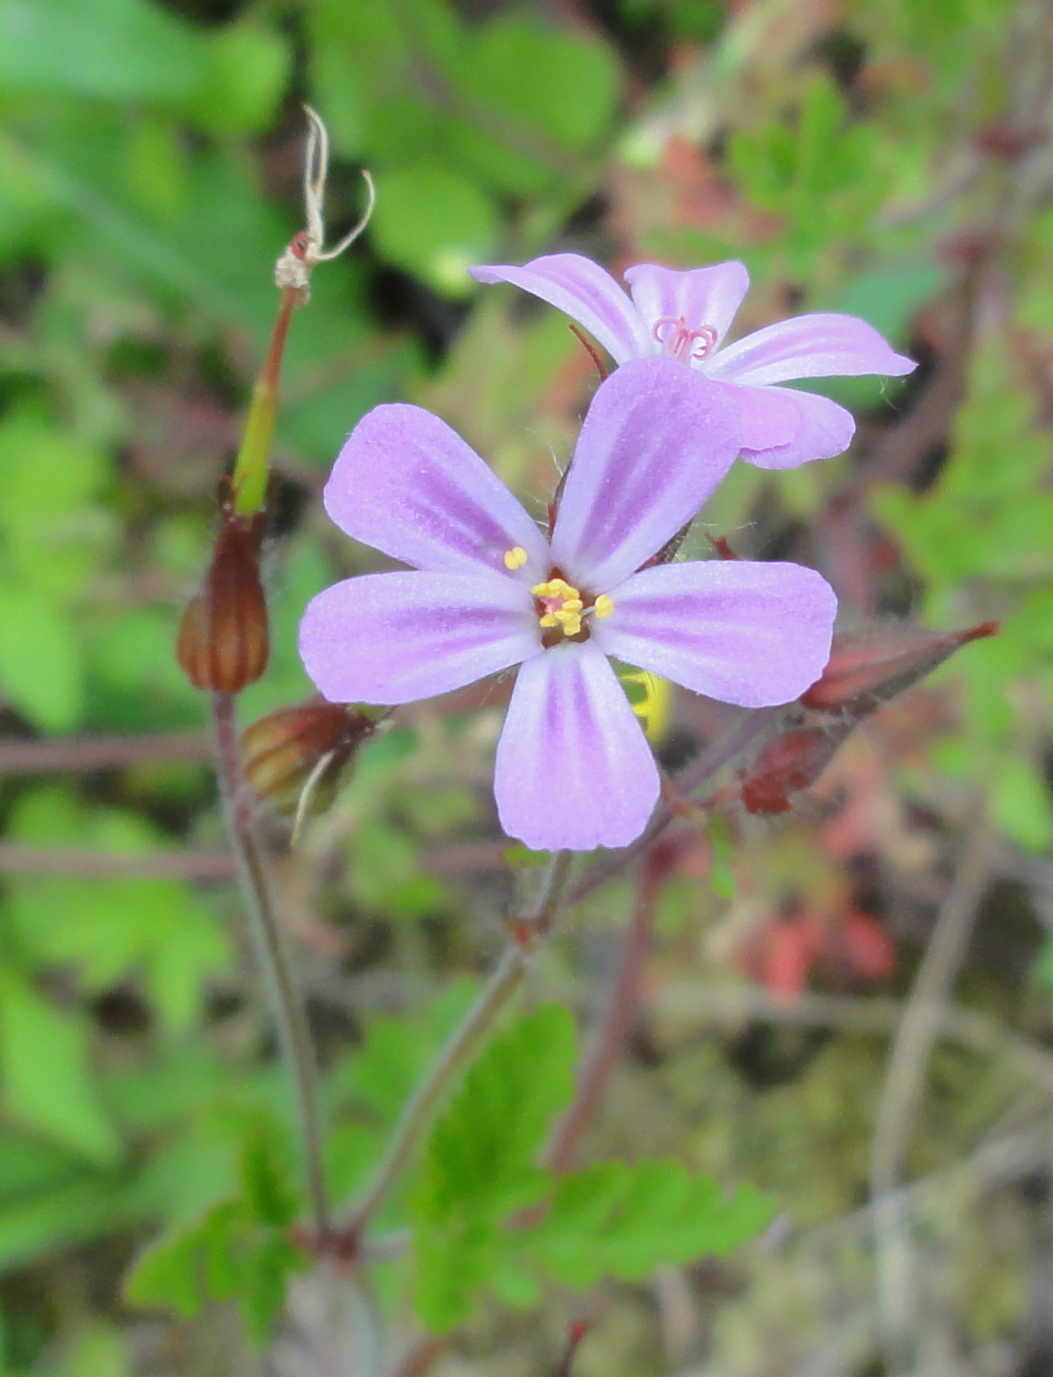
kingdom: Plantae
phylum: Tracheophyta
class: Magnoliopsida
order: Geraniales
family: Geraniaceae
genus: Geranium
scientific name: Geranium robertianum
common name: Herb-robert
